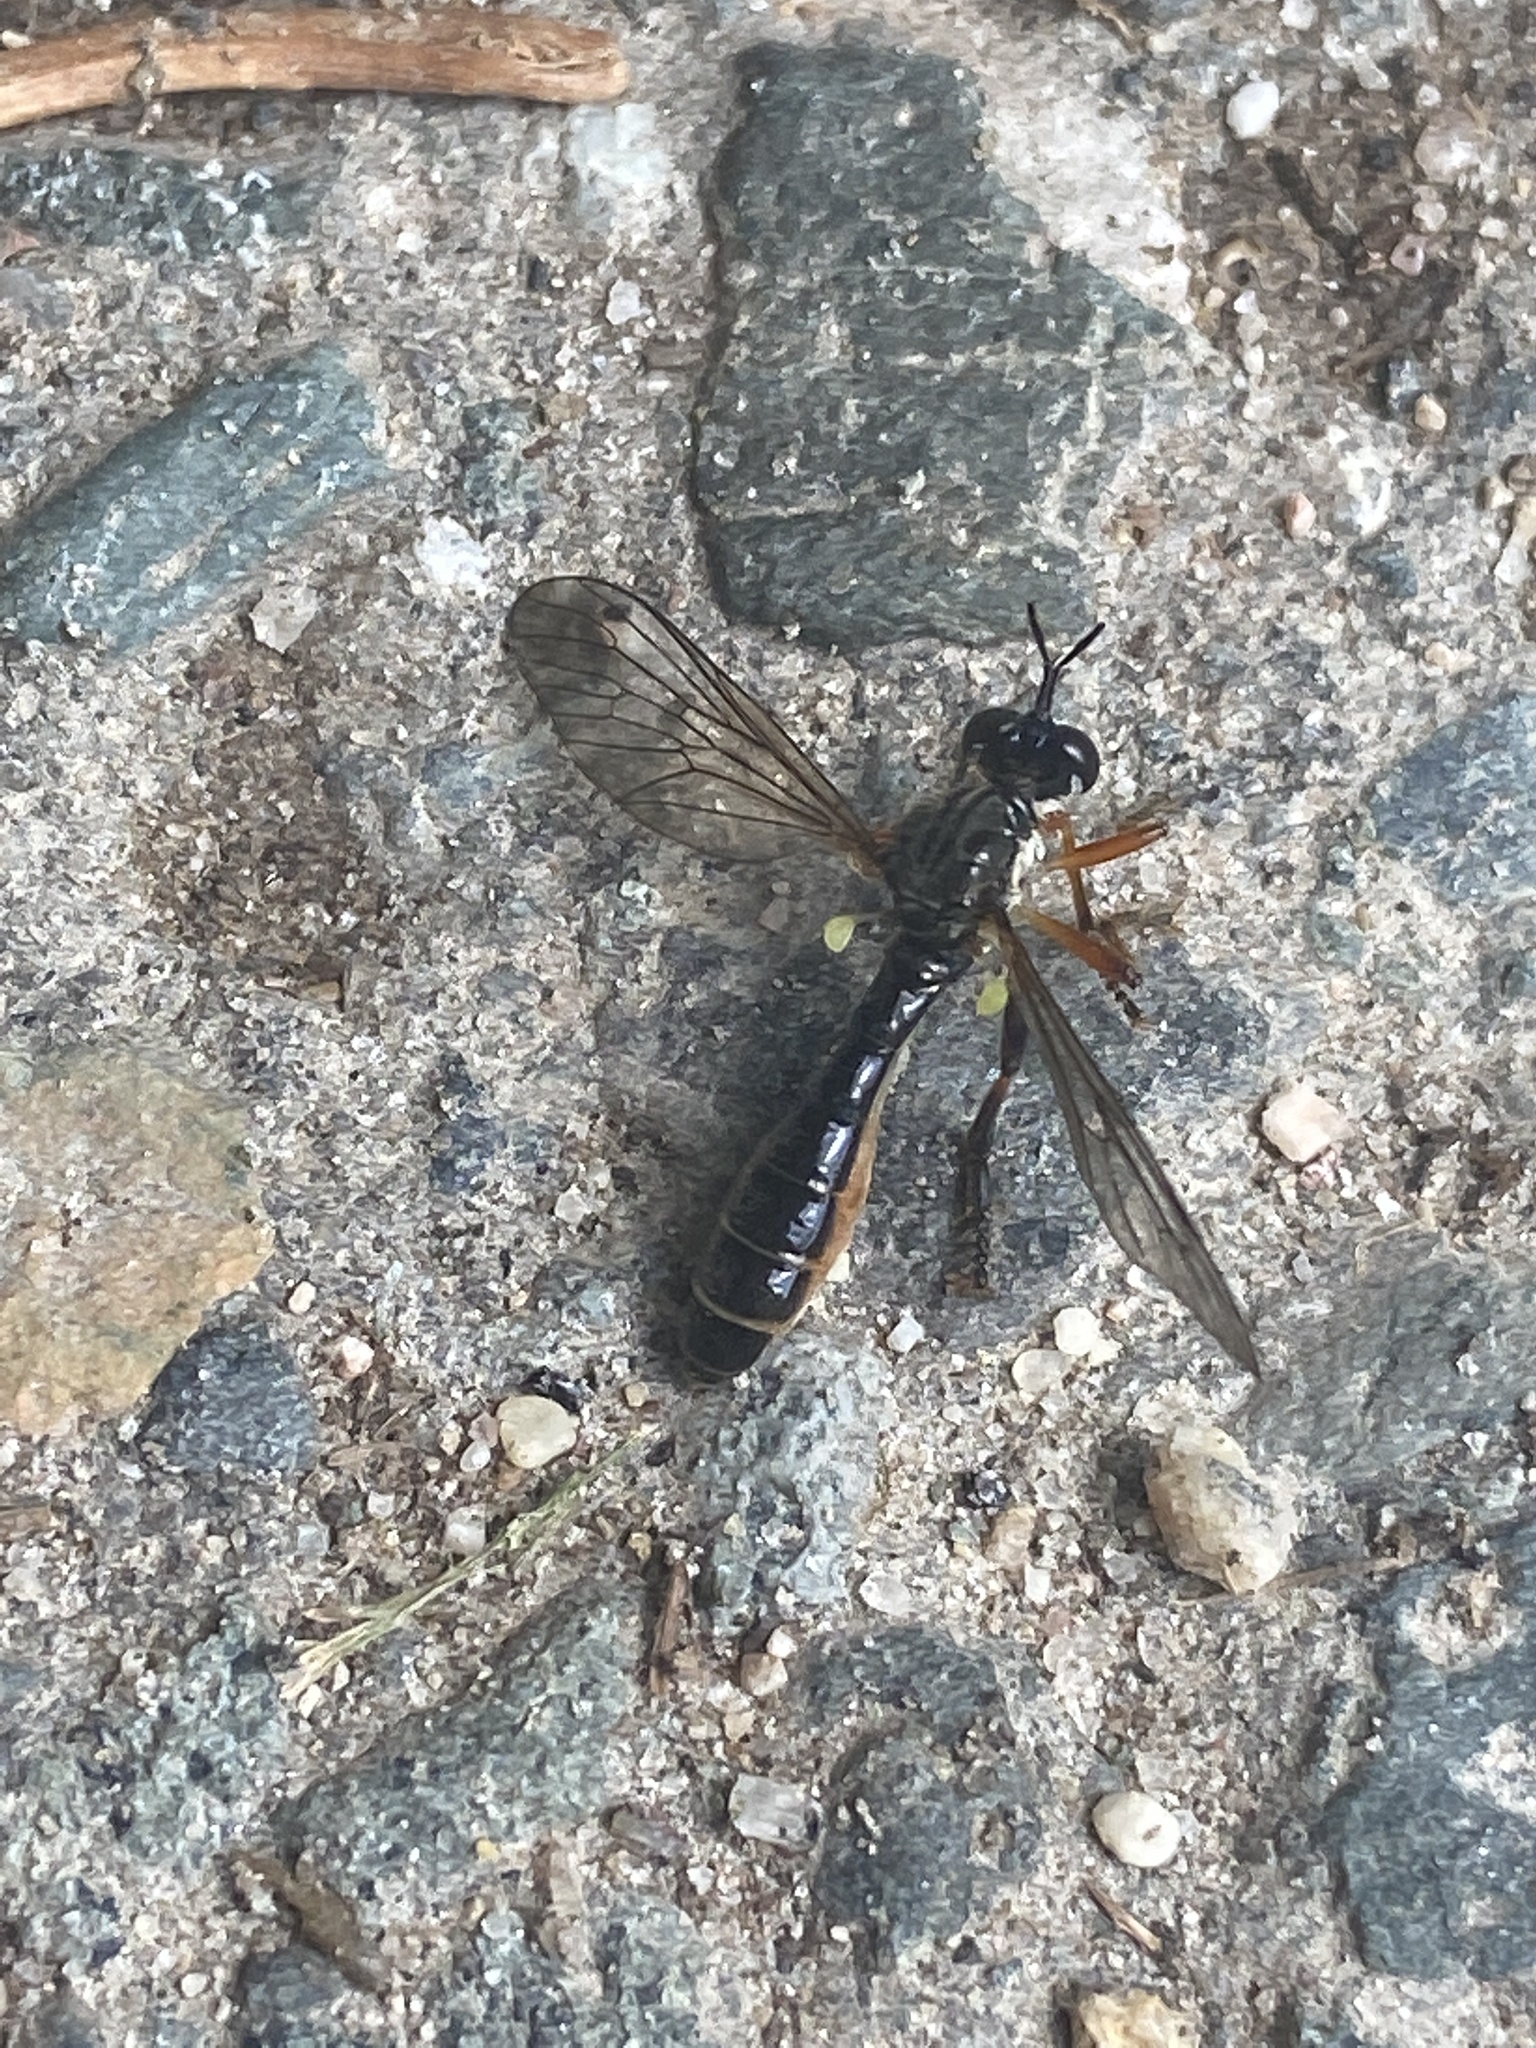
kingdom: Animalia
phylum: Arthropoda
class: Insecta
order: Diptera
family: Asilidae
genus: Dioctria
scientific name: Dioctria hyalipennis
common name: Stripe-legged robberfly
